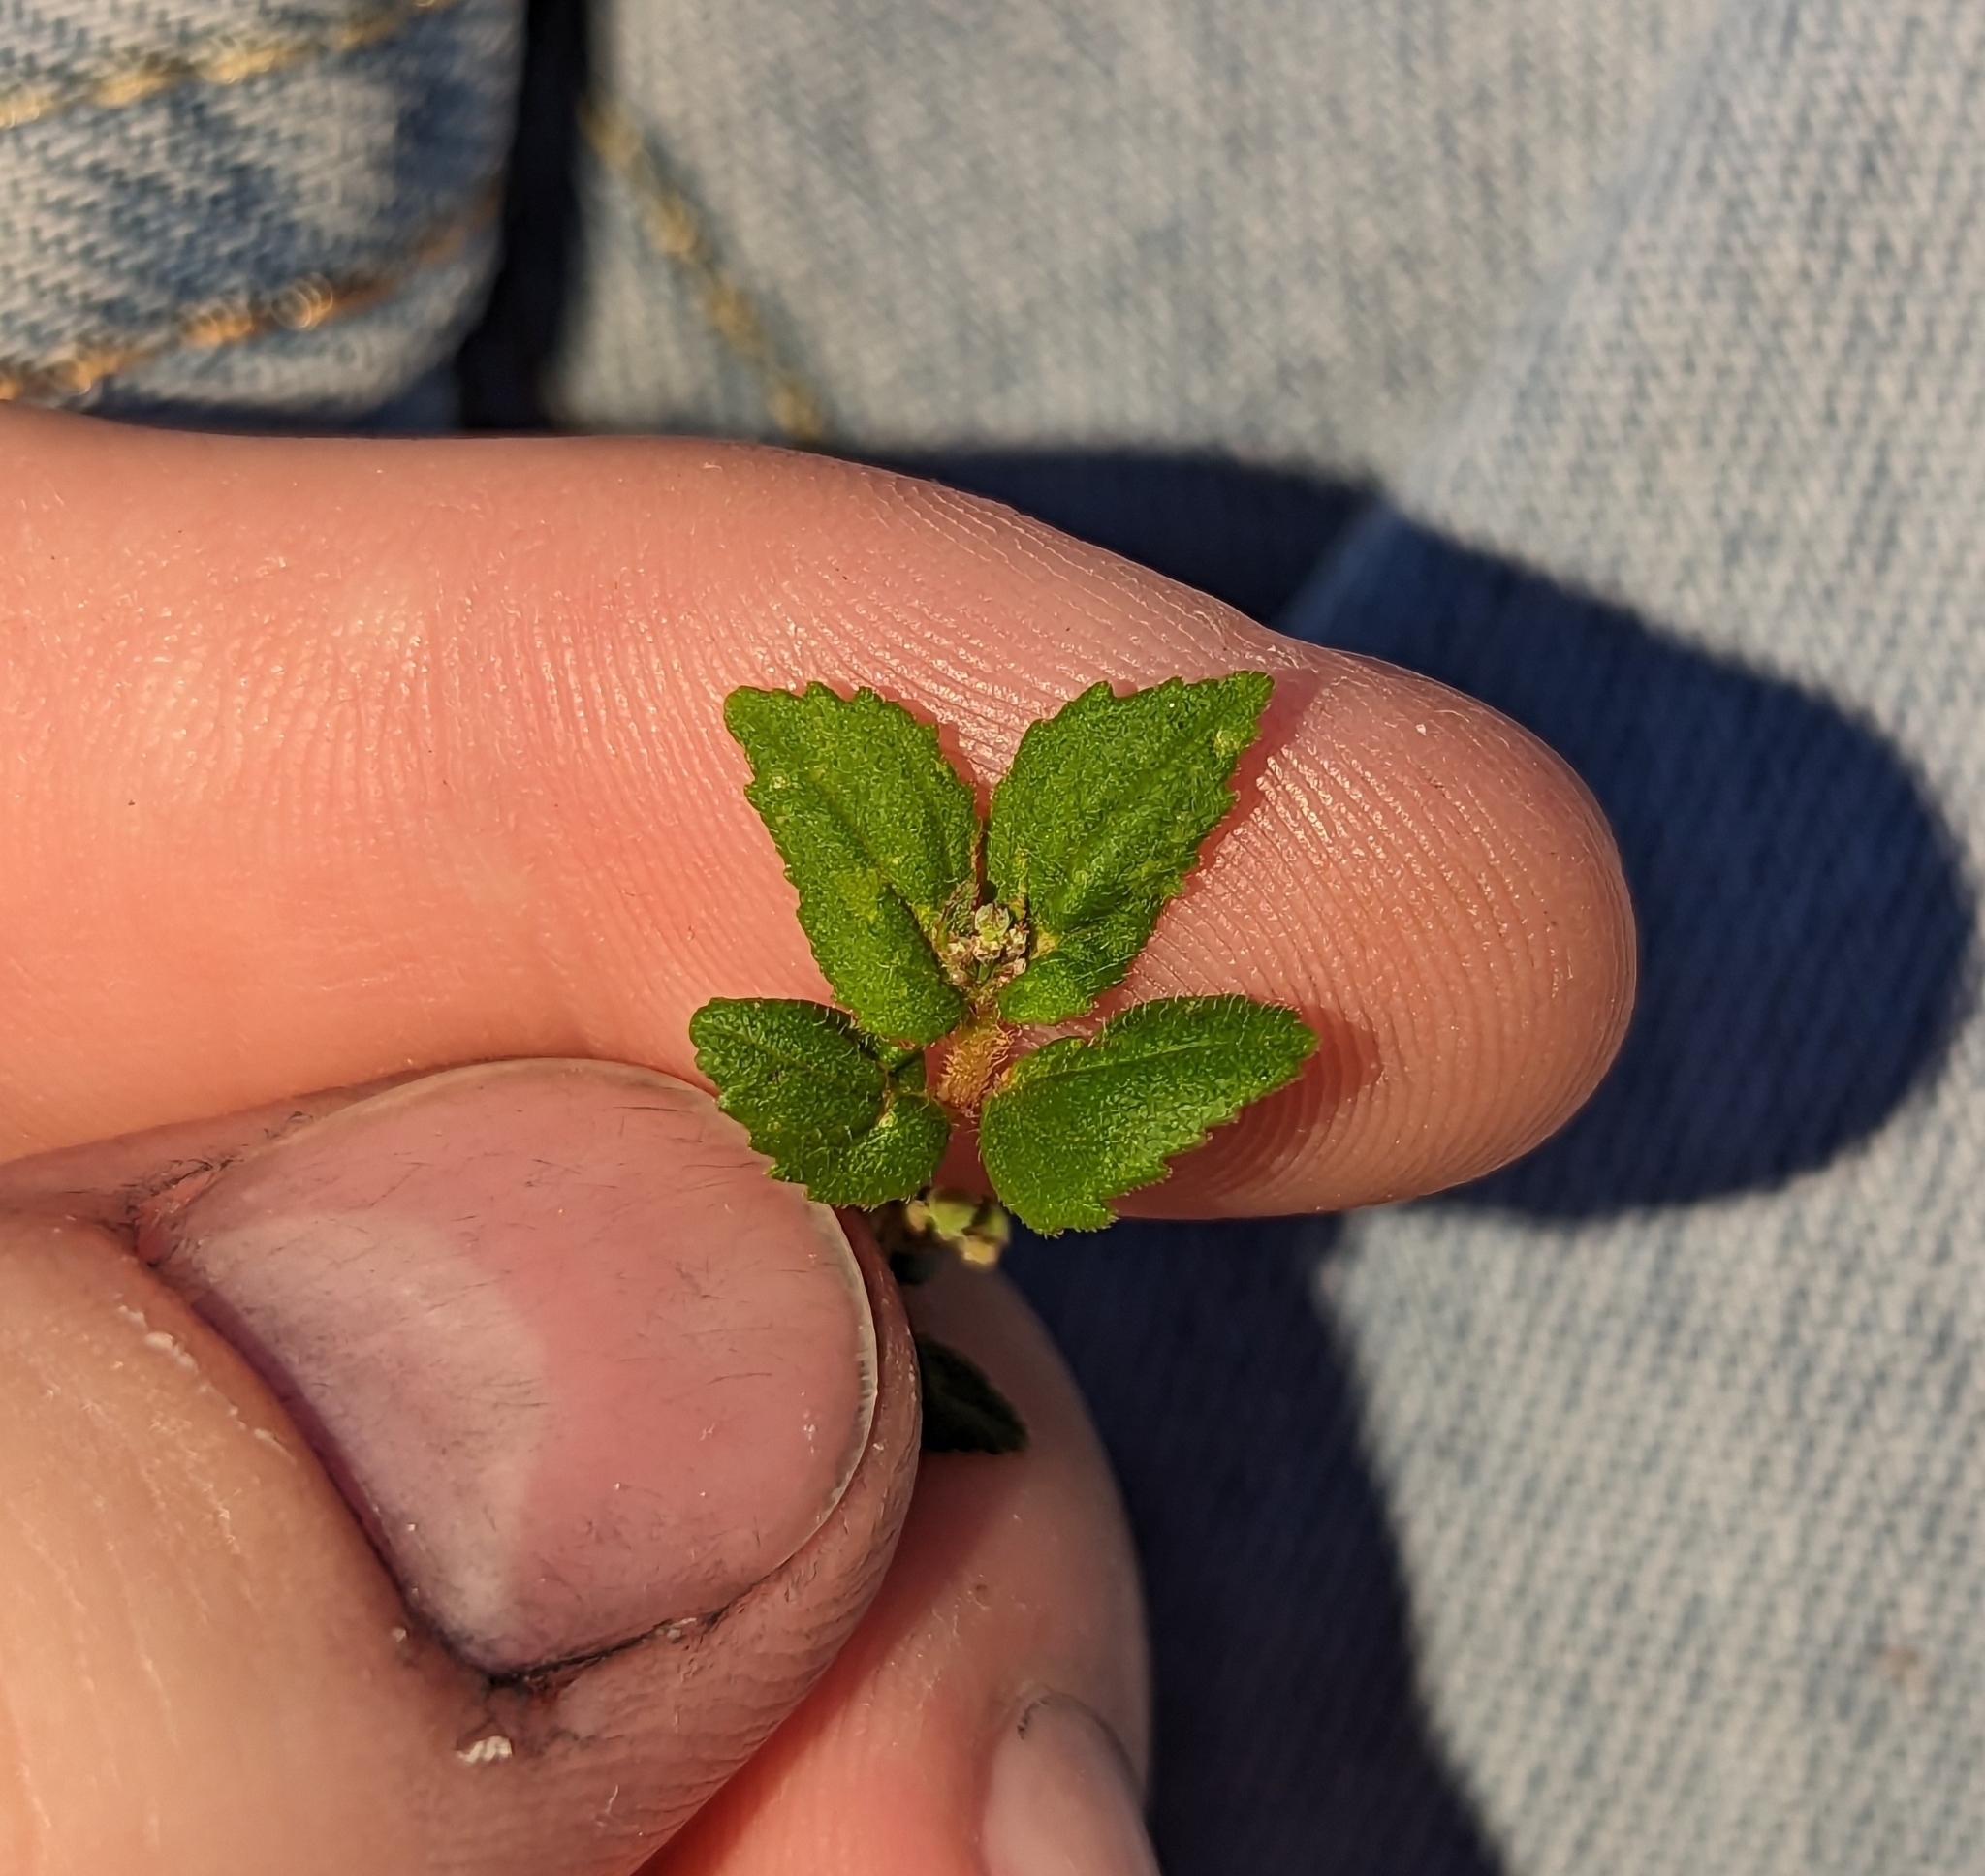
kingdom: Plantae
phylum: Tracheophyta
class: Magnoliopsida
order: Malpighiales
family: Euphorbiaceae
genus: Euphorbia
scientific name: Euphorbia ophthalmica
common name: Florida hammock sandmat
